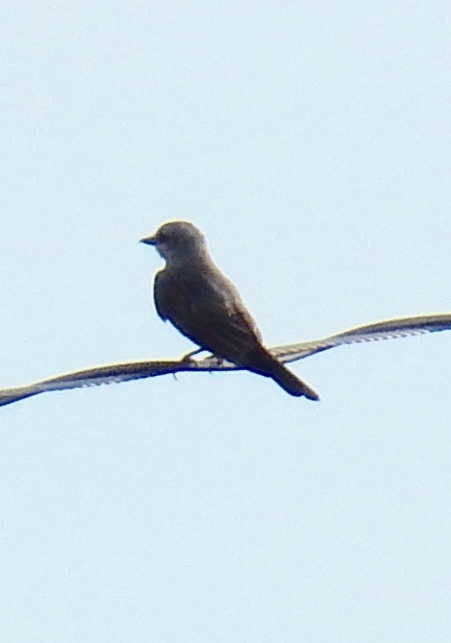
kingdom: Animalia
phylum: Chordata
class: Aves
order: Passeriformes
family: Tyrannidae
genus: Tyrannus
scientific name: Tyrannus verticalis
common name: Western kingbird
